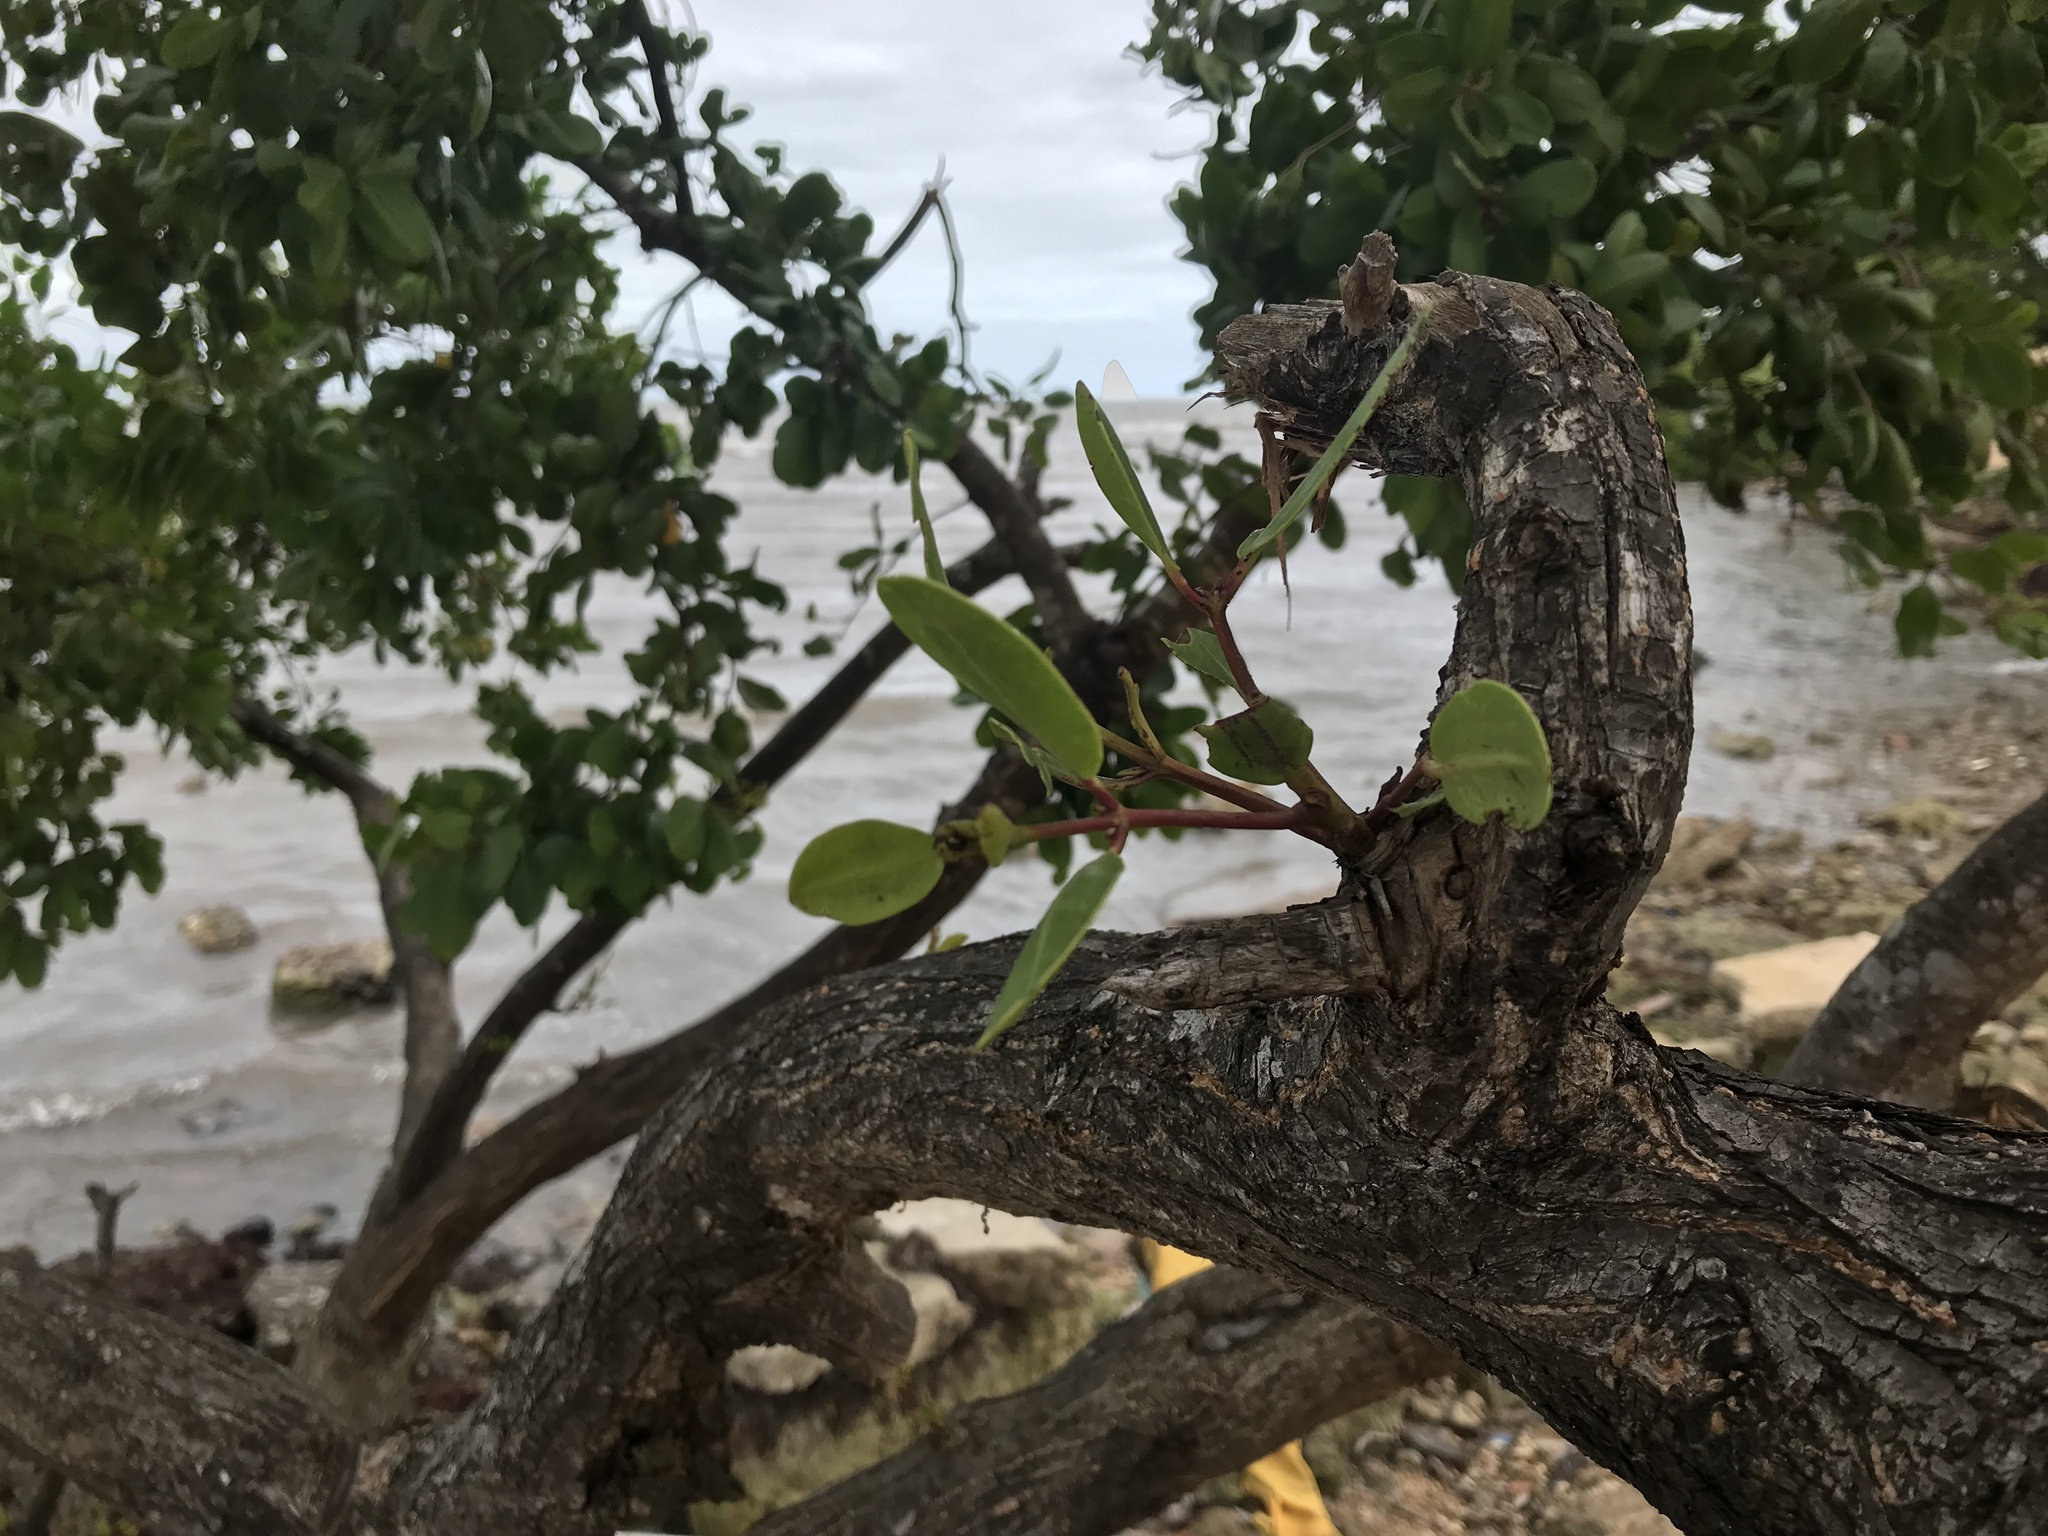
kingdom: Plantae
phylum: Tracheophyta
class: Magnoliopsida
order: Myrtales
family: Combretaceae
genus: Conocarpus
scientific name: Conocarpus erectus
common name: Button mangrove
